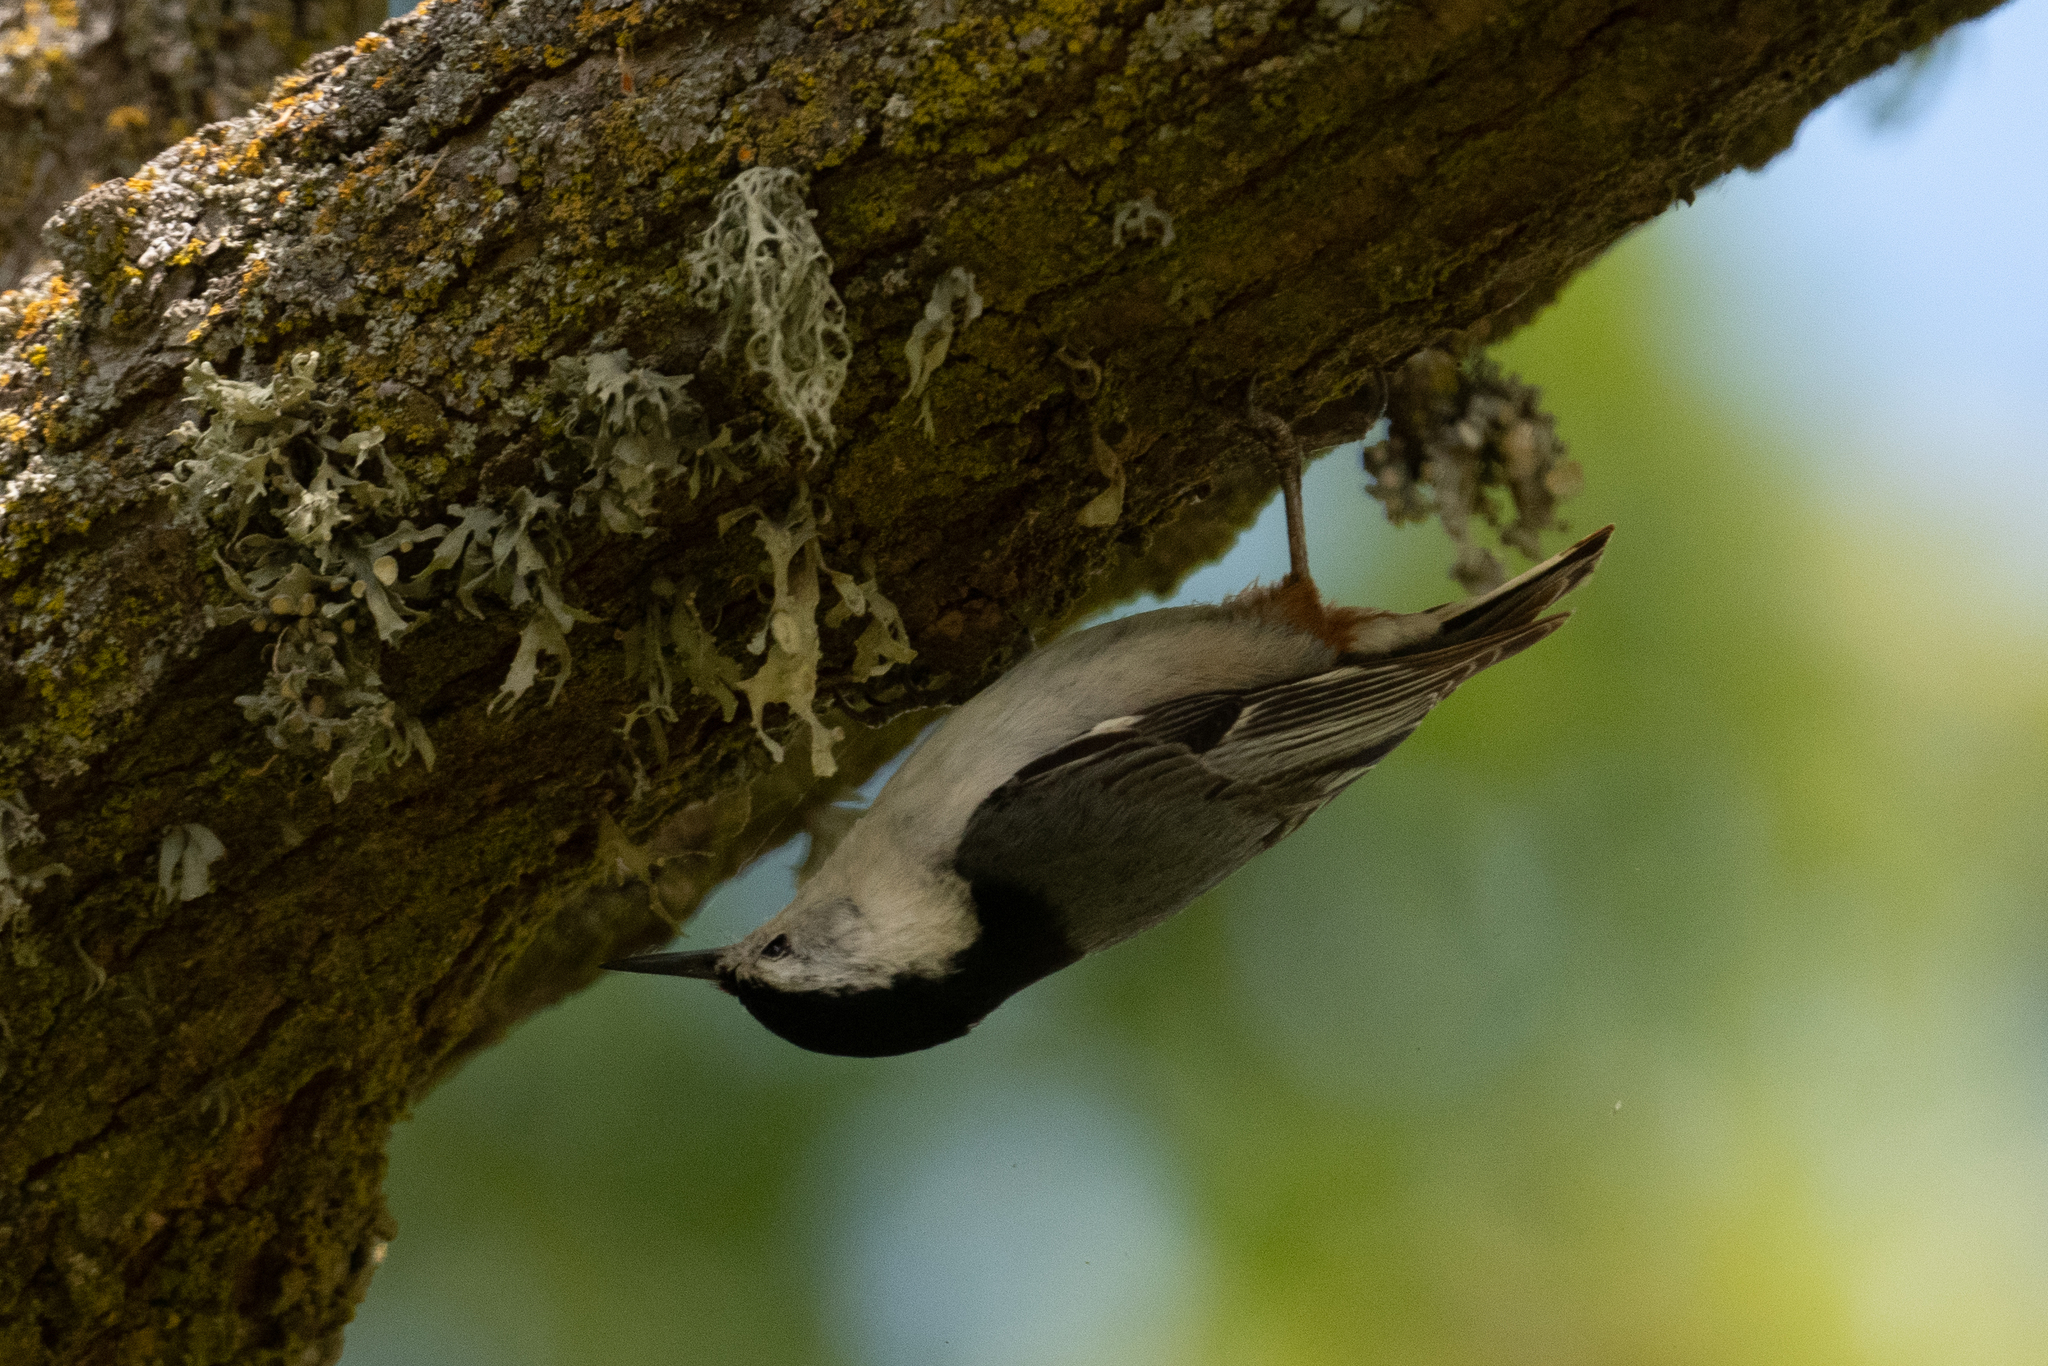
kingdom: Animalia
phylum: Chordata
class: Aves
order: Passeriformes
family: Sittidae
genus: Sitta
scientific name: Sitta carolinensis
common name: White-breasted nuthatch
